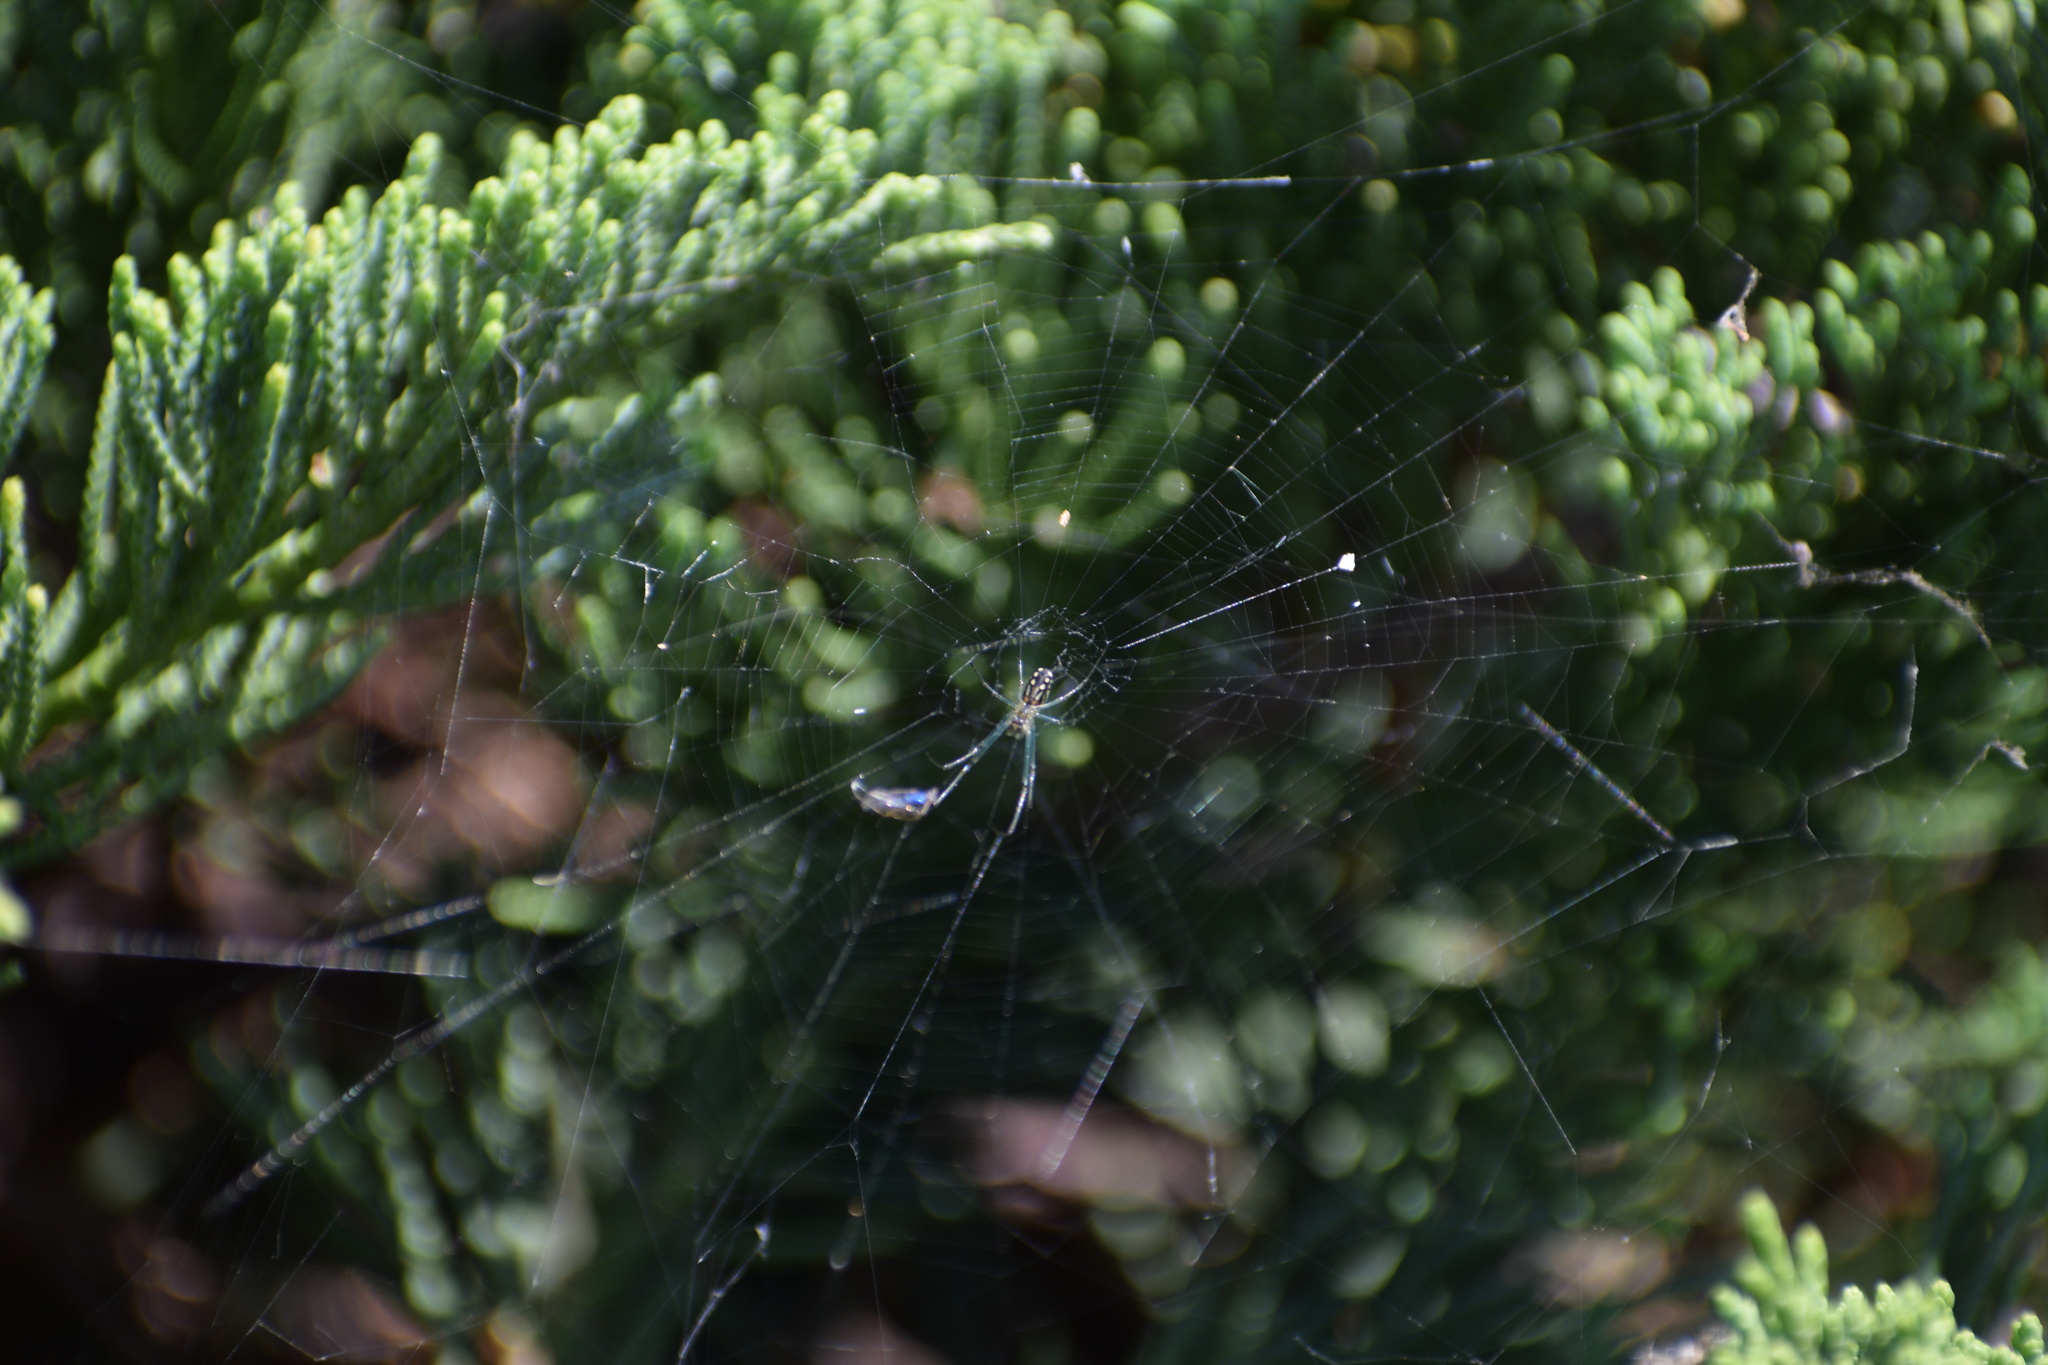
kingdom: Animalia
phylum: Arthropoda
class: Arachnida
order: Araneae
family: Tetragnathidae
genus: Leucauge
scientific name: Leucauge argyra
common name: Longjawed orb weavers
